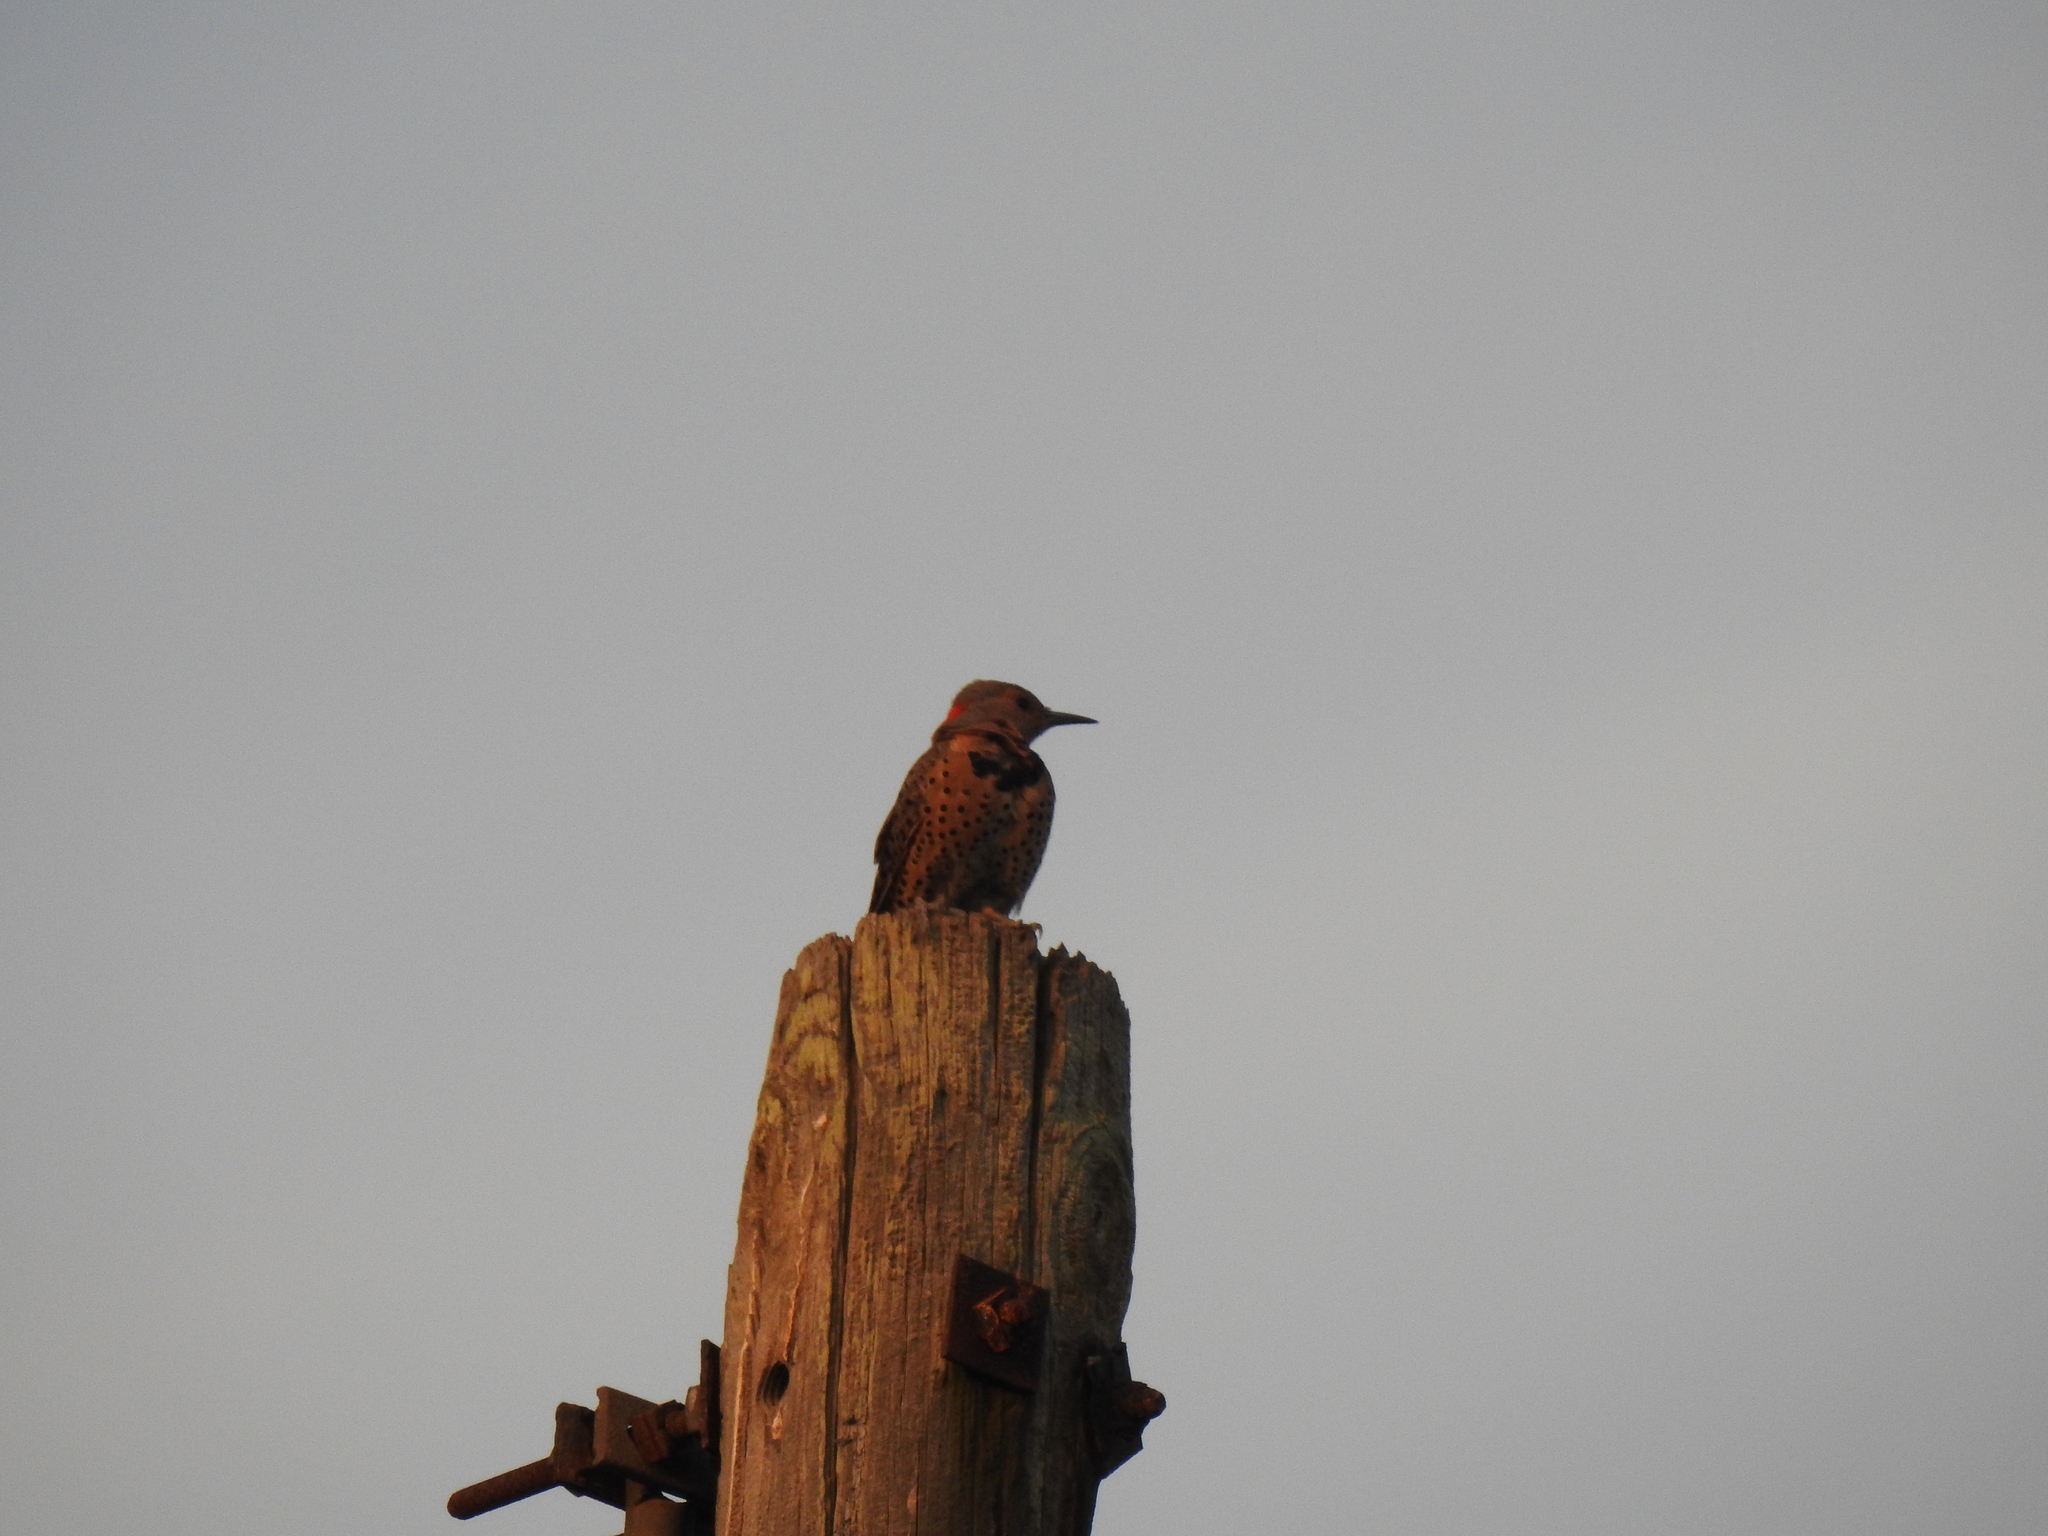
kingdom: Animalia
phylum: Chordata
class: Aves
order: Piciformes
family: Picidae
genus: Colaptes
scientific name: Colaptes auratus
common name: Northern flicker
